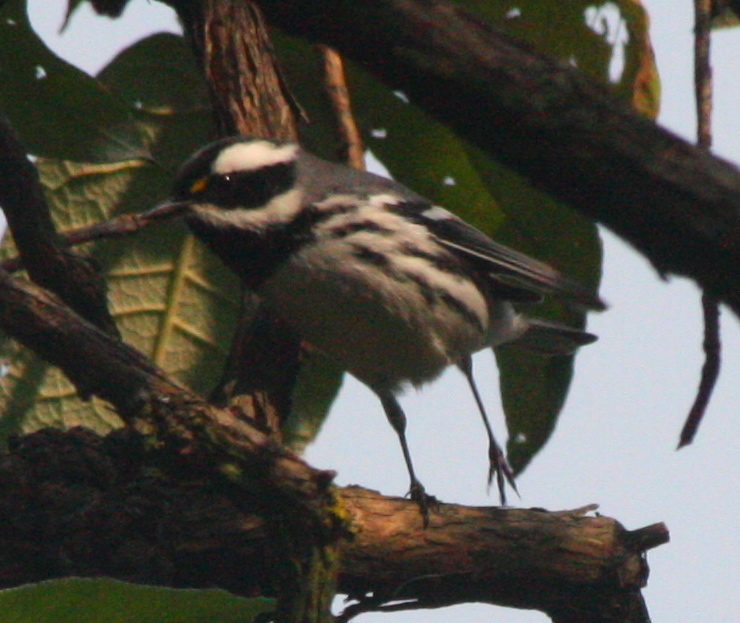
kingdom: Animalia
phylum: Chordata
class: Aves
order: Passeriformes
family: Parulidae
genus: Setophaga
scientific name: Setophaga nigrescens
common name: Black-throated gray warbler
